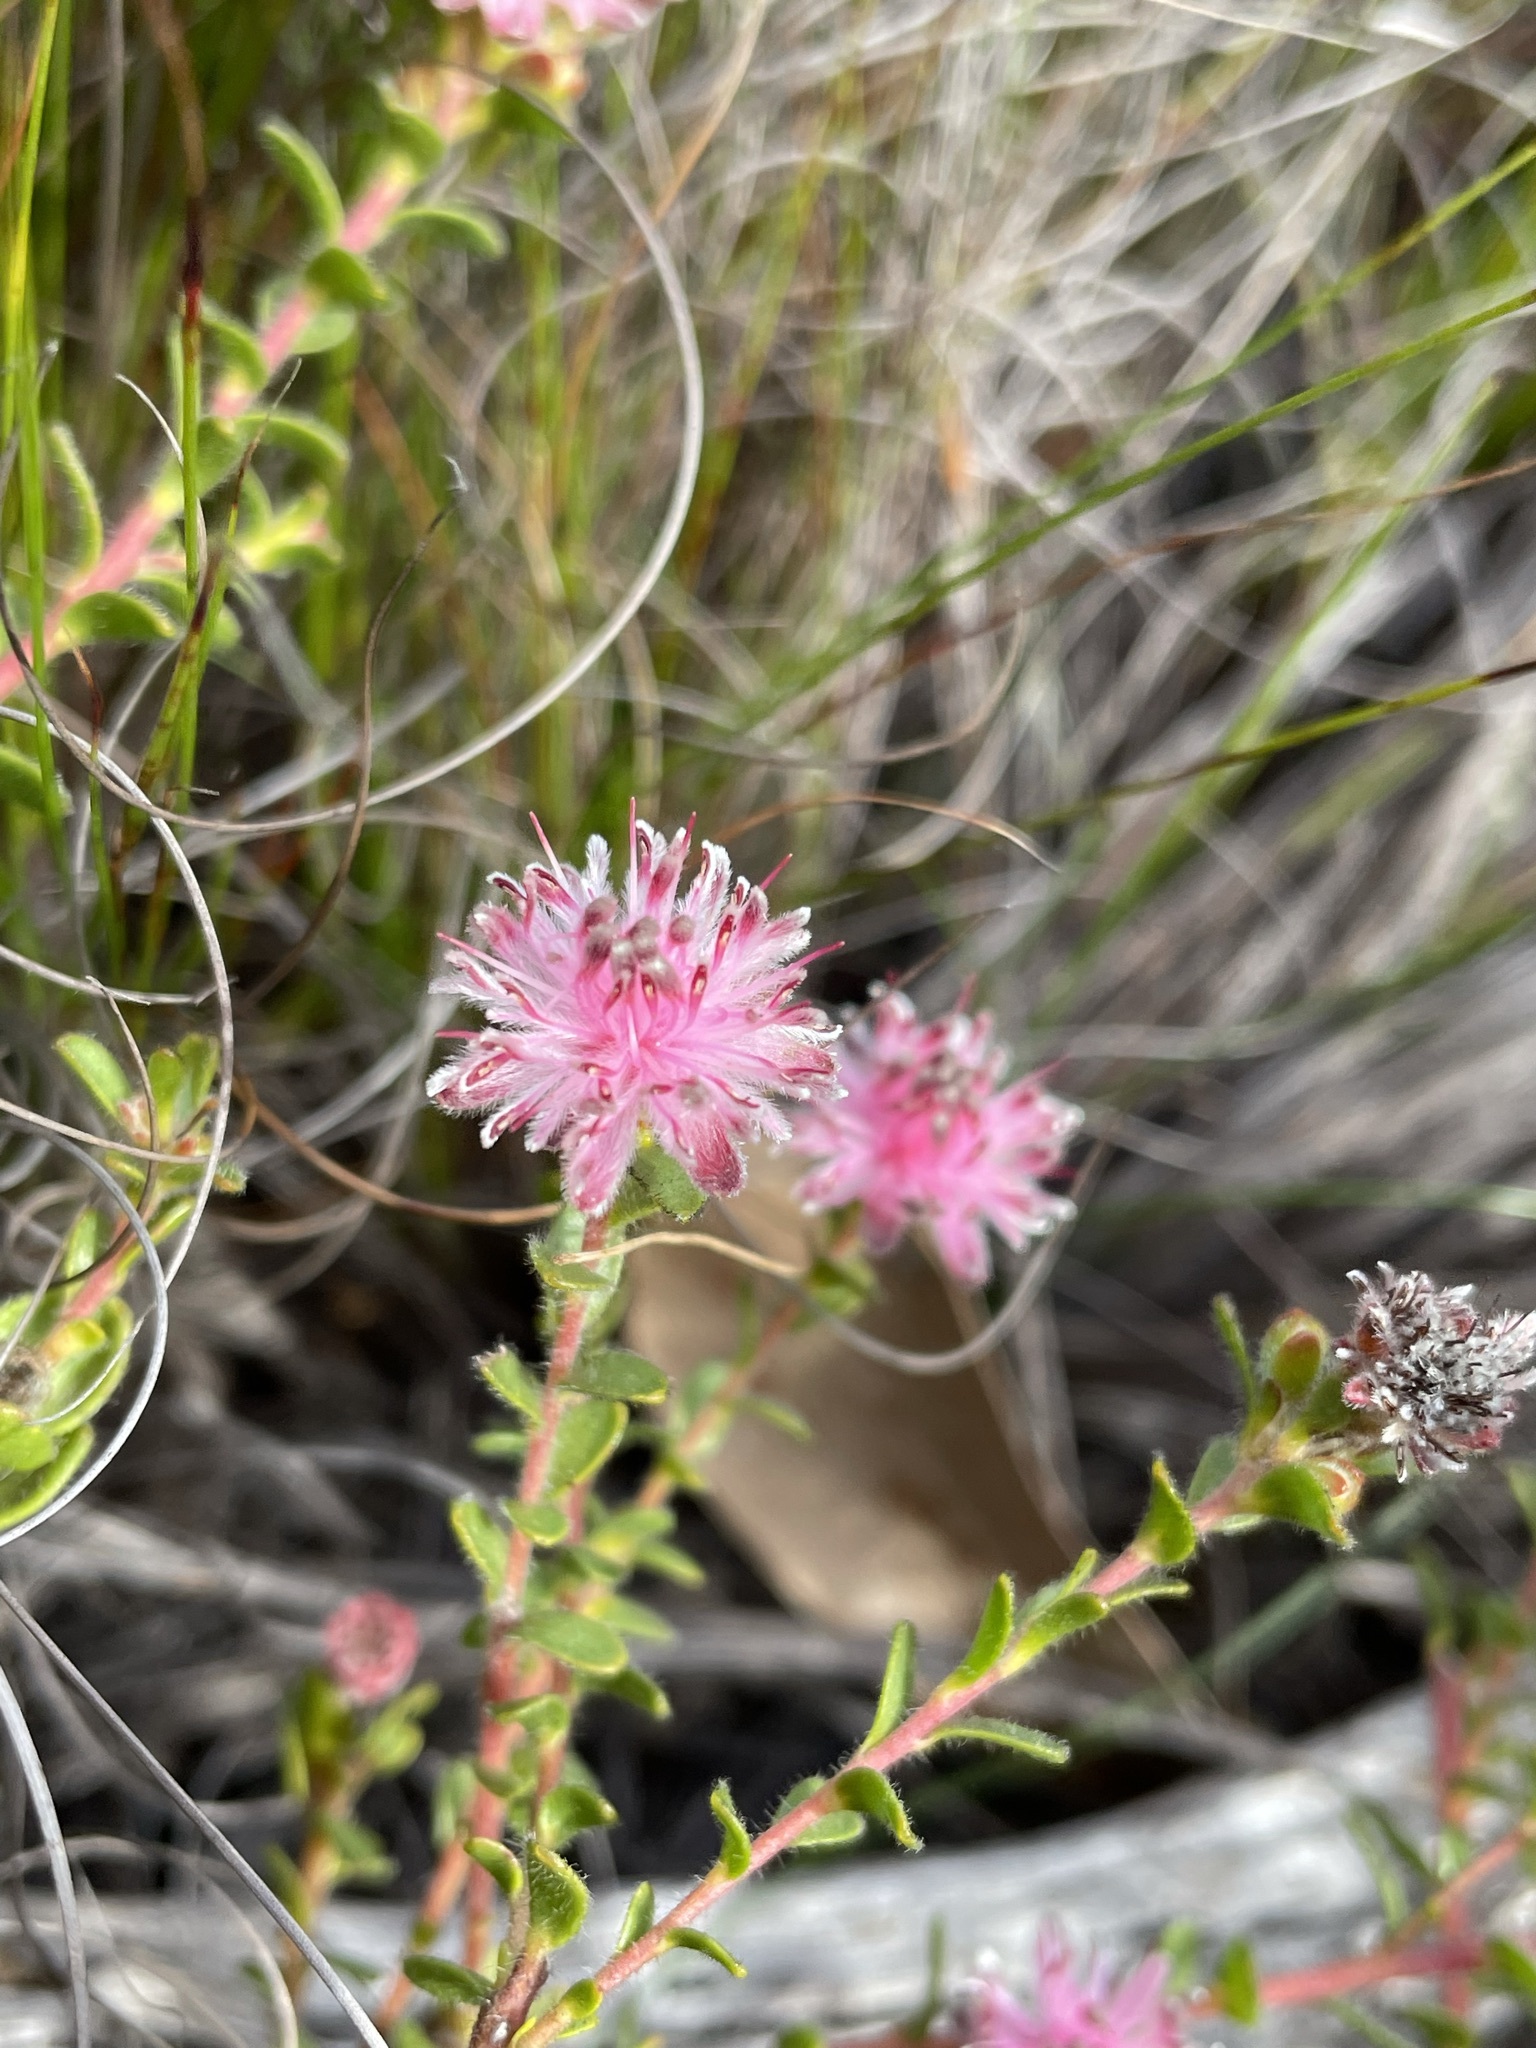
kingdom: Plantae
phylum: Tracheophyta
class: Magnoliopsida
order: Proteales
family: Proteaceae
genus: Diastella
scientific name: Diastella divaricata
